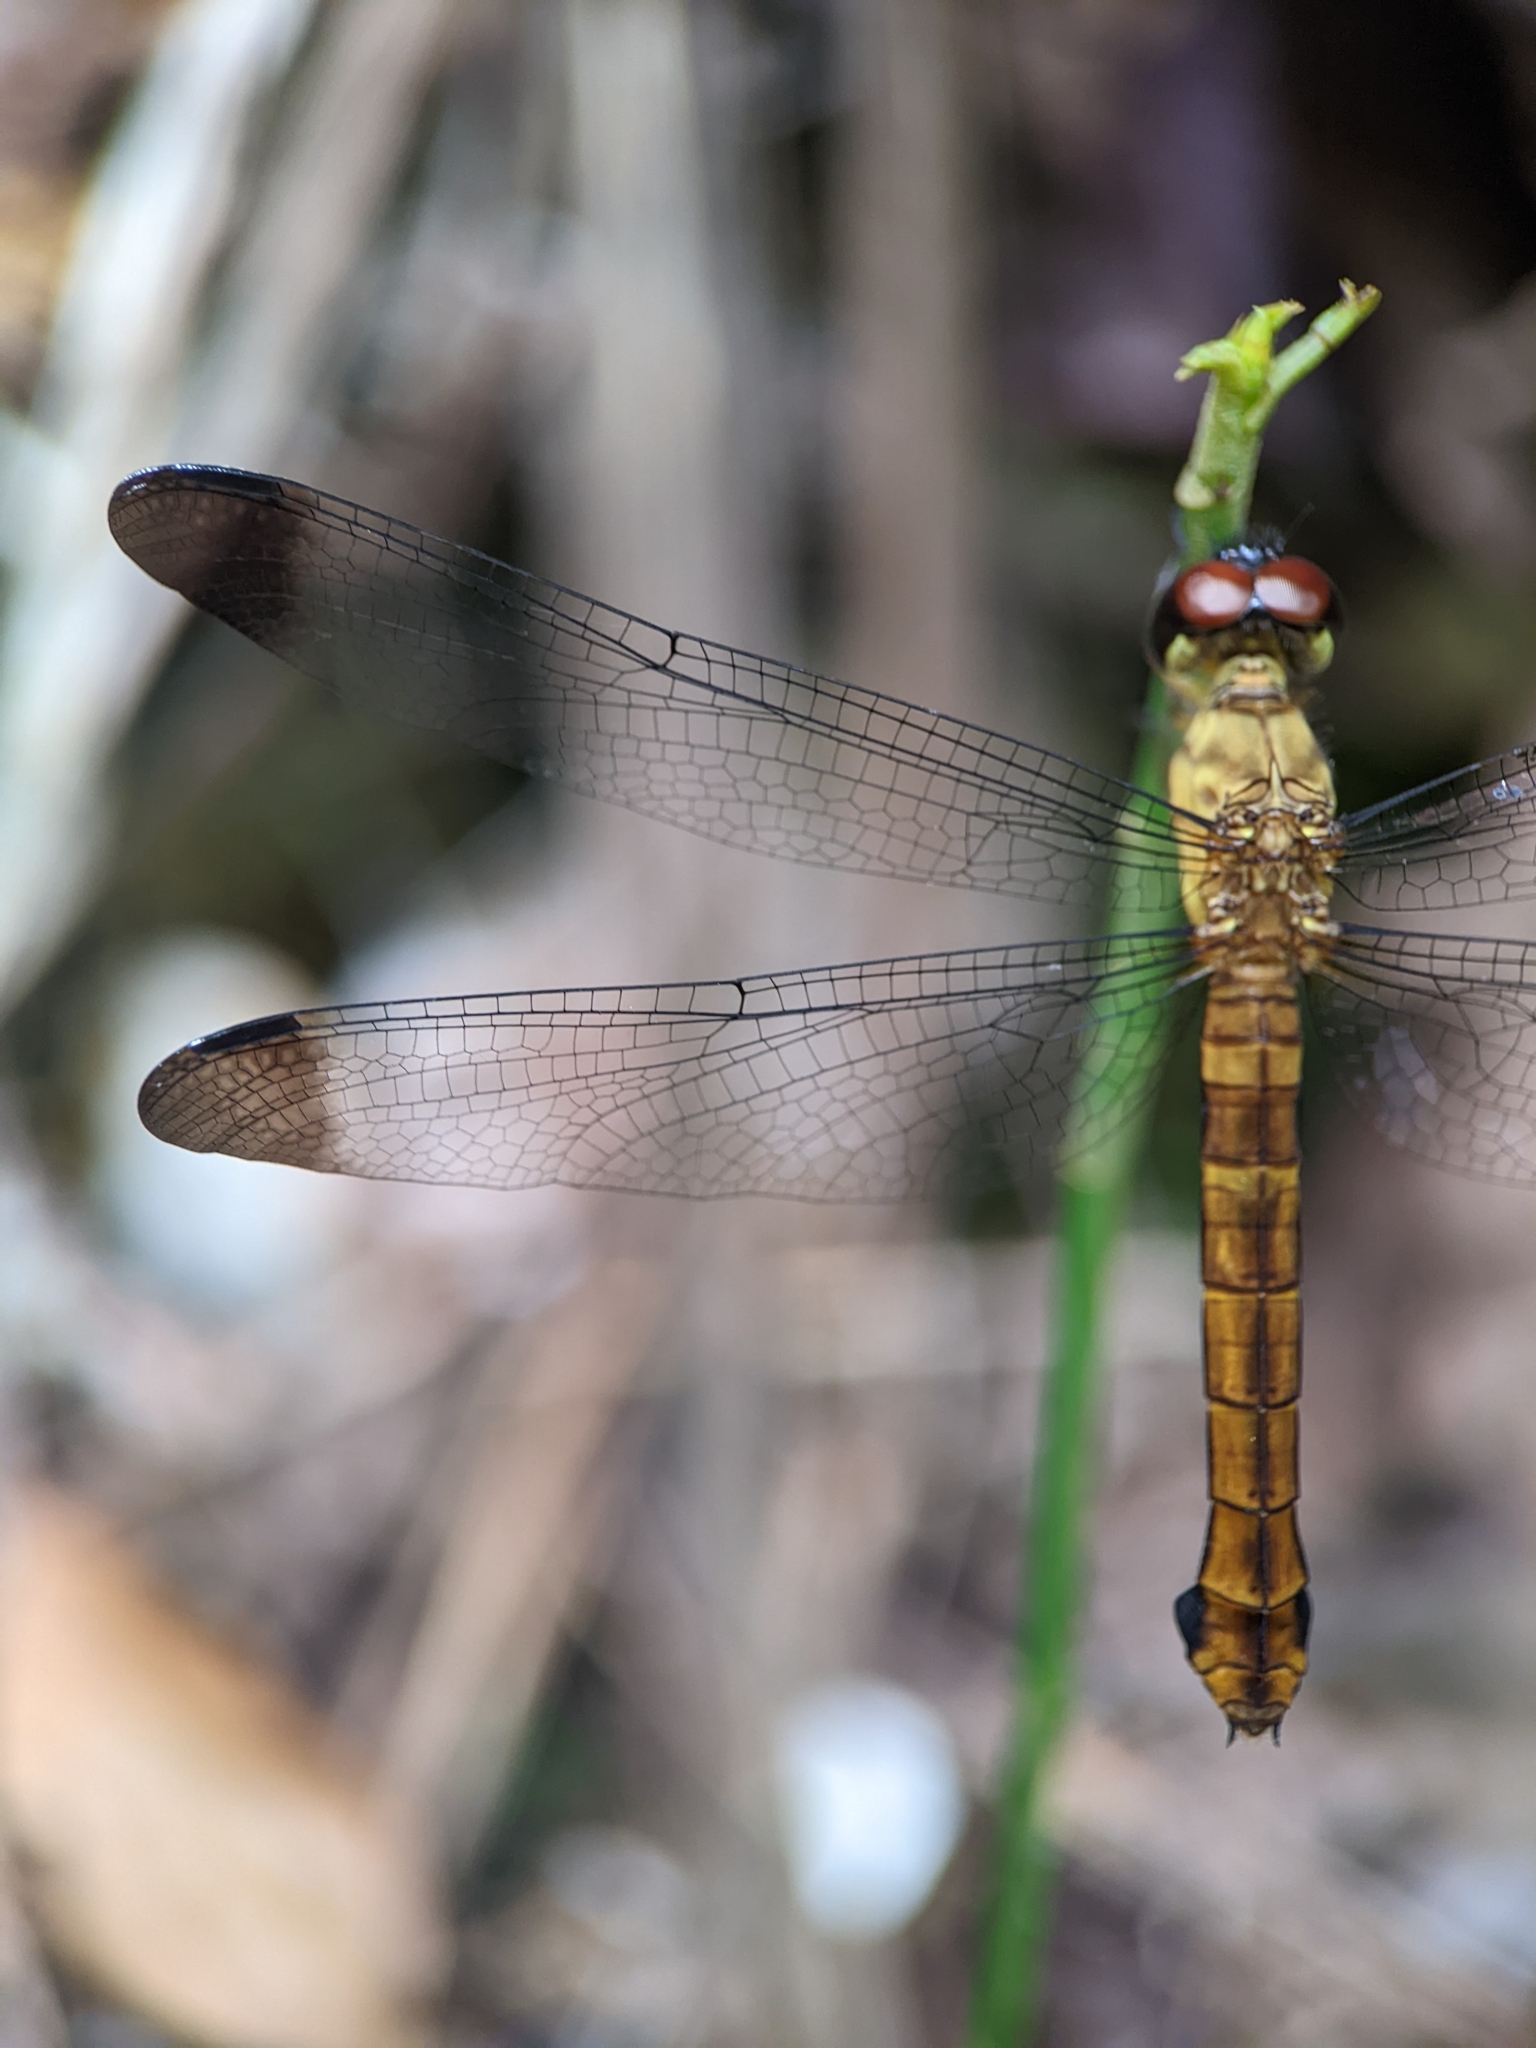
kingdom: Animalia
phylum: Arthropoda
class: Insecta
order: Odonata
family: Libellulidae
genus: Lyriothemis
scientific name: Lyriothemis biappendiculata
